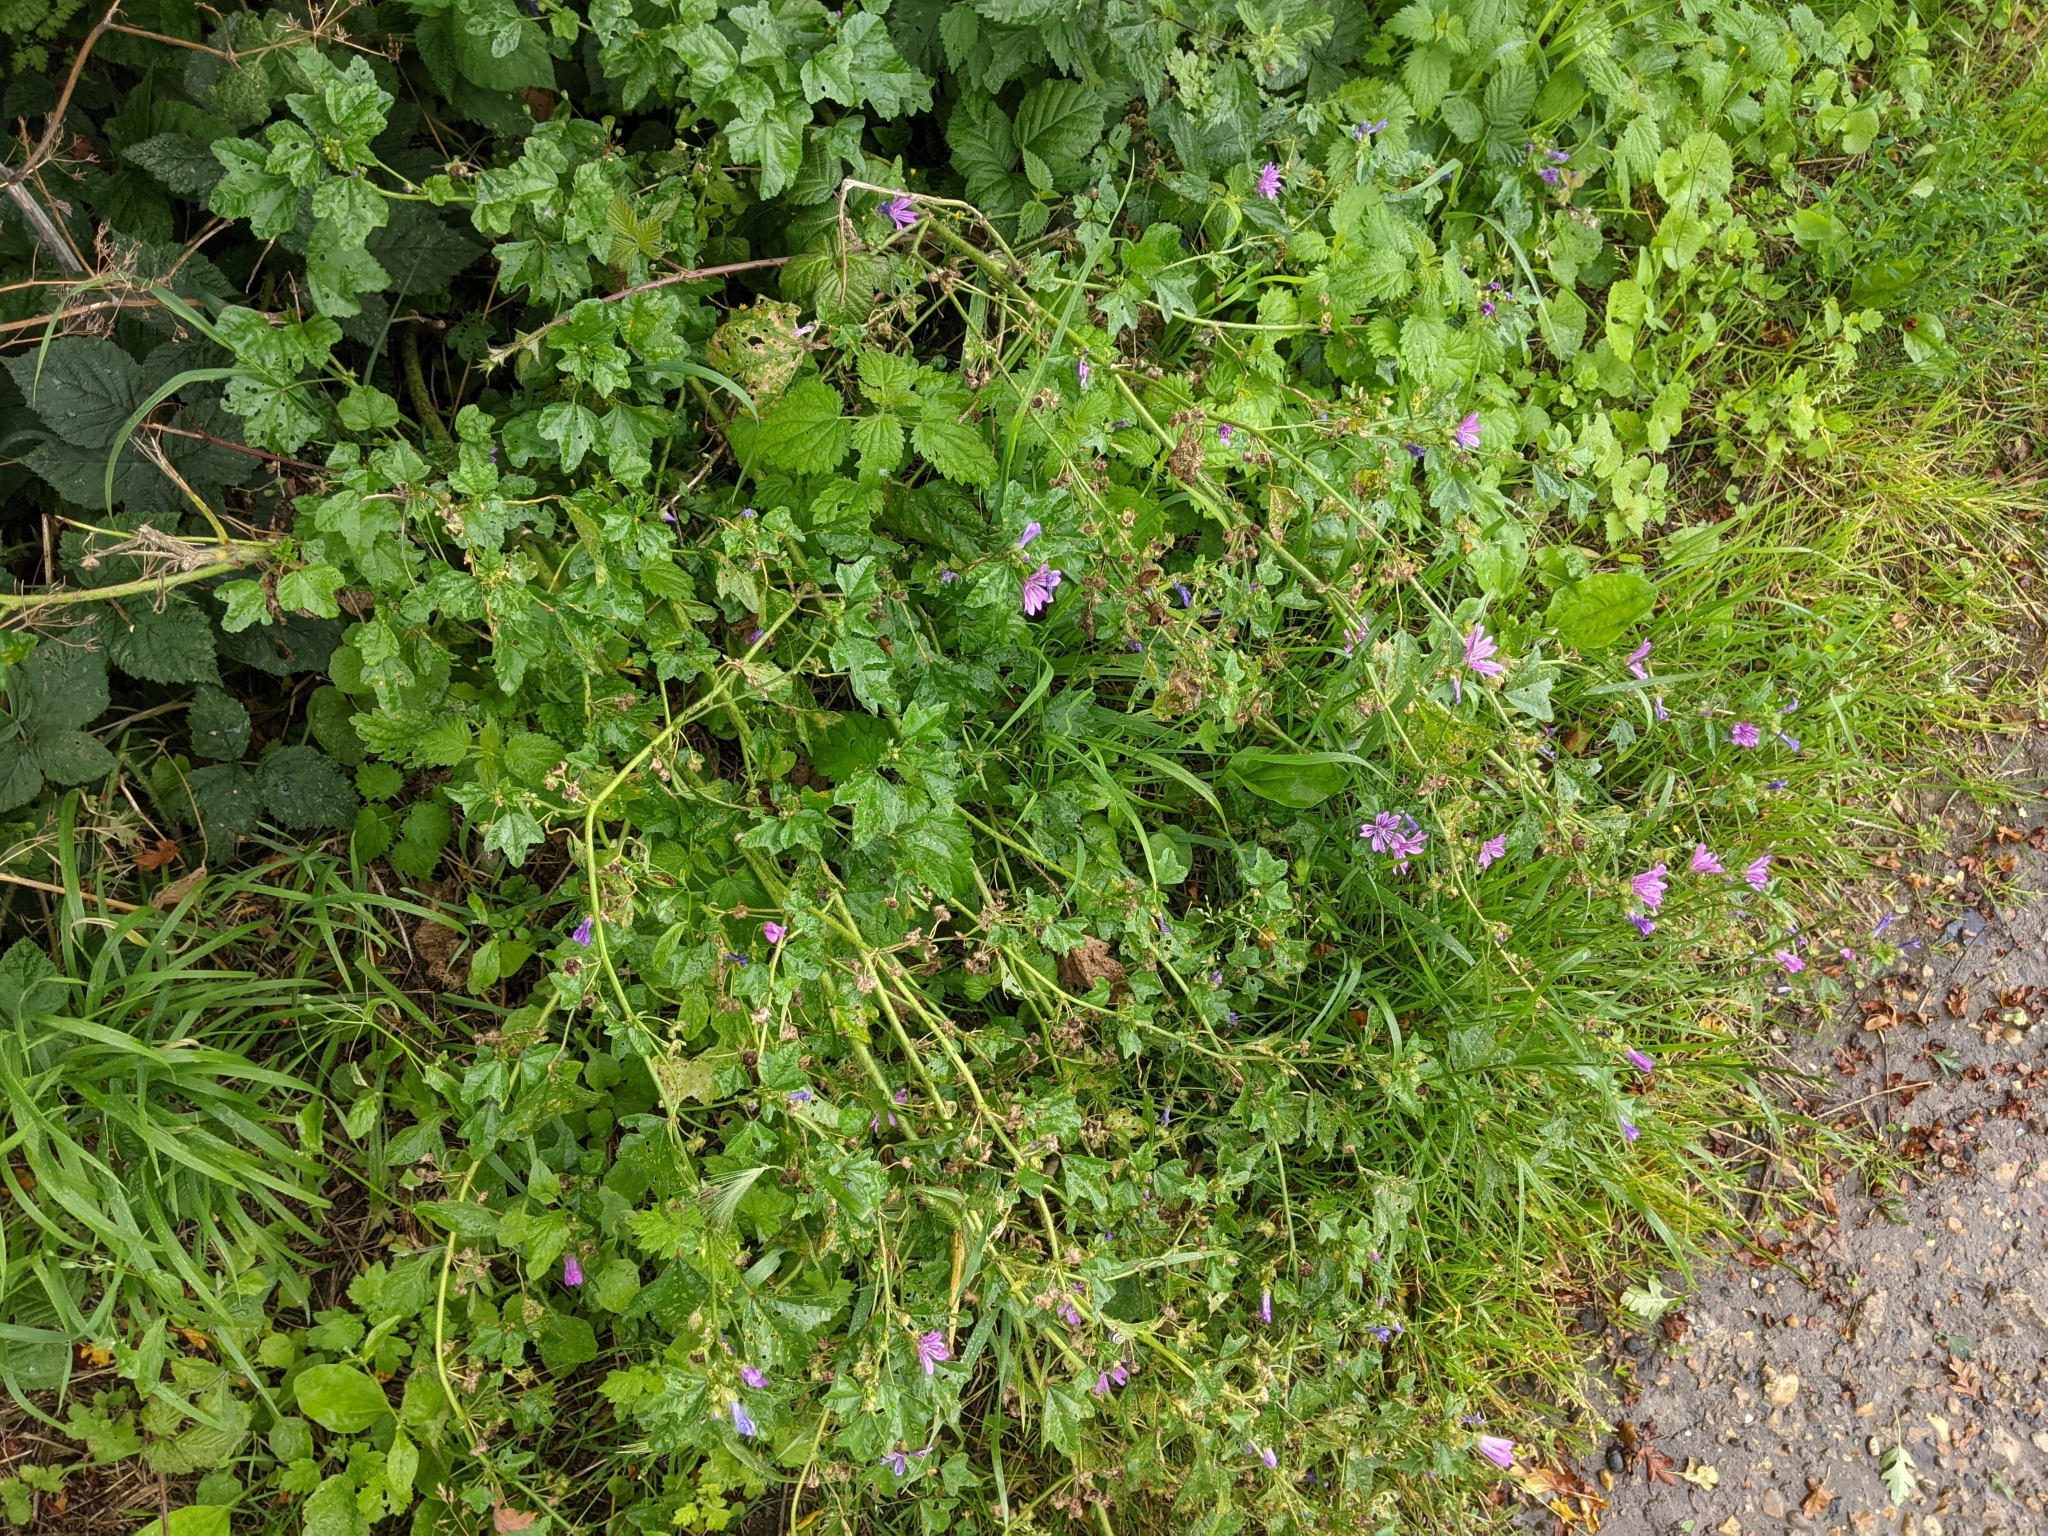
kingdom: Plantae
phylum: Tracheophyta
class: Magnoliopsida
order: Malvales
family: Malvaceae
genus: Malva
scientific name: Malva sylvestris
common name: Common mallow
